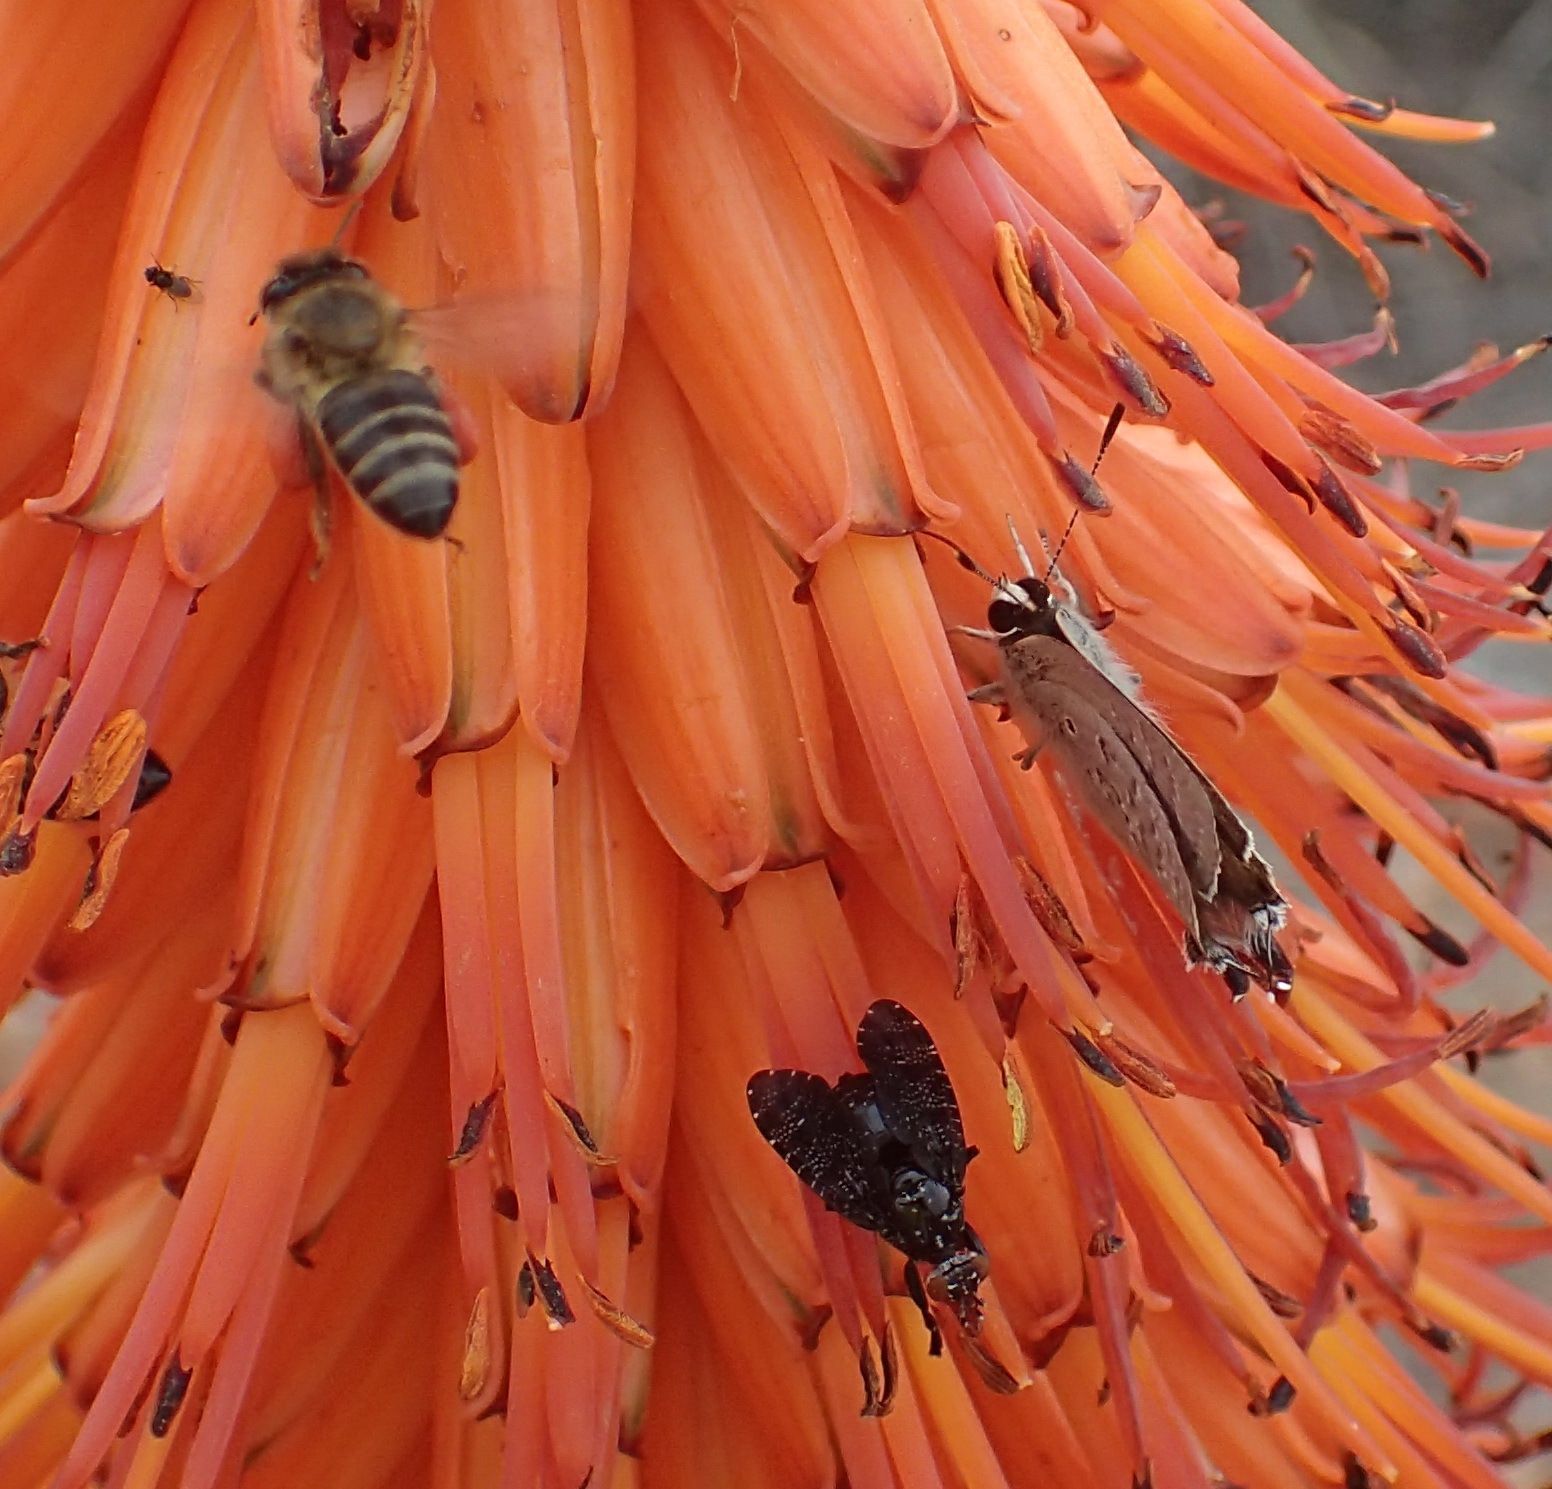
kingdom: Animalia
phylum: Arthropoda
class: Insecta
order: Lepidoptera
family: Lycaenidae
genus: Deudorix
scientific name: Deudorix antalus
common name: Brown playboy
